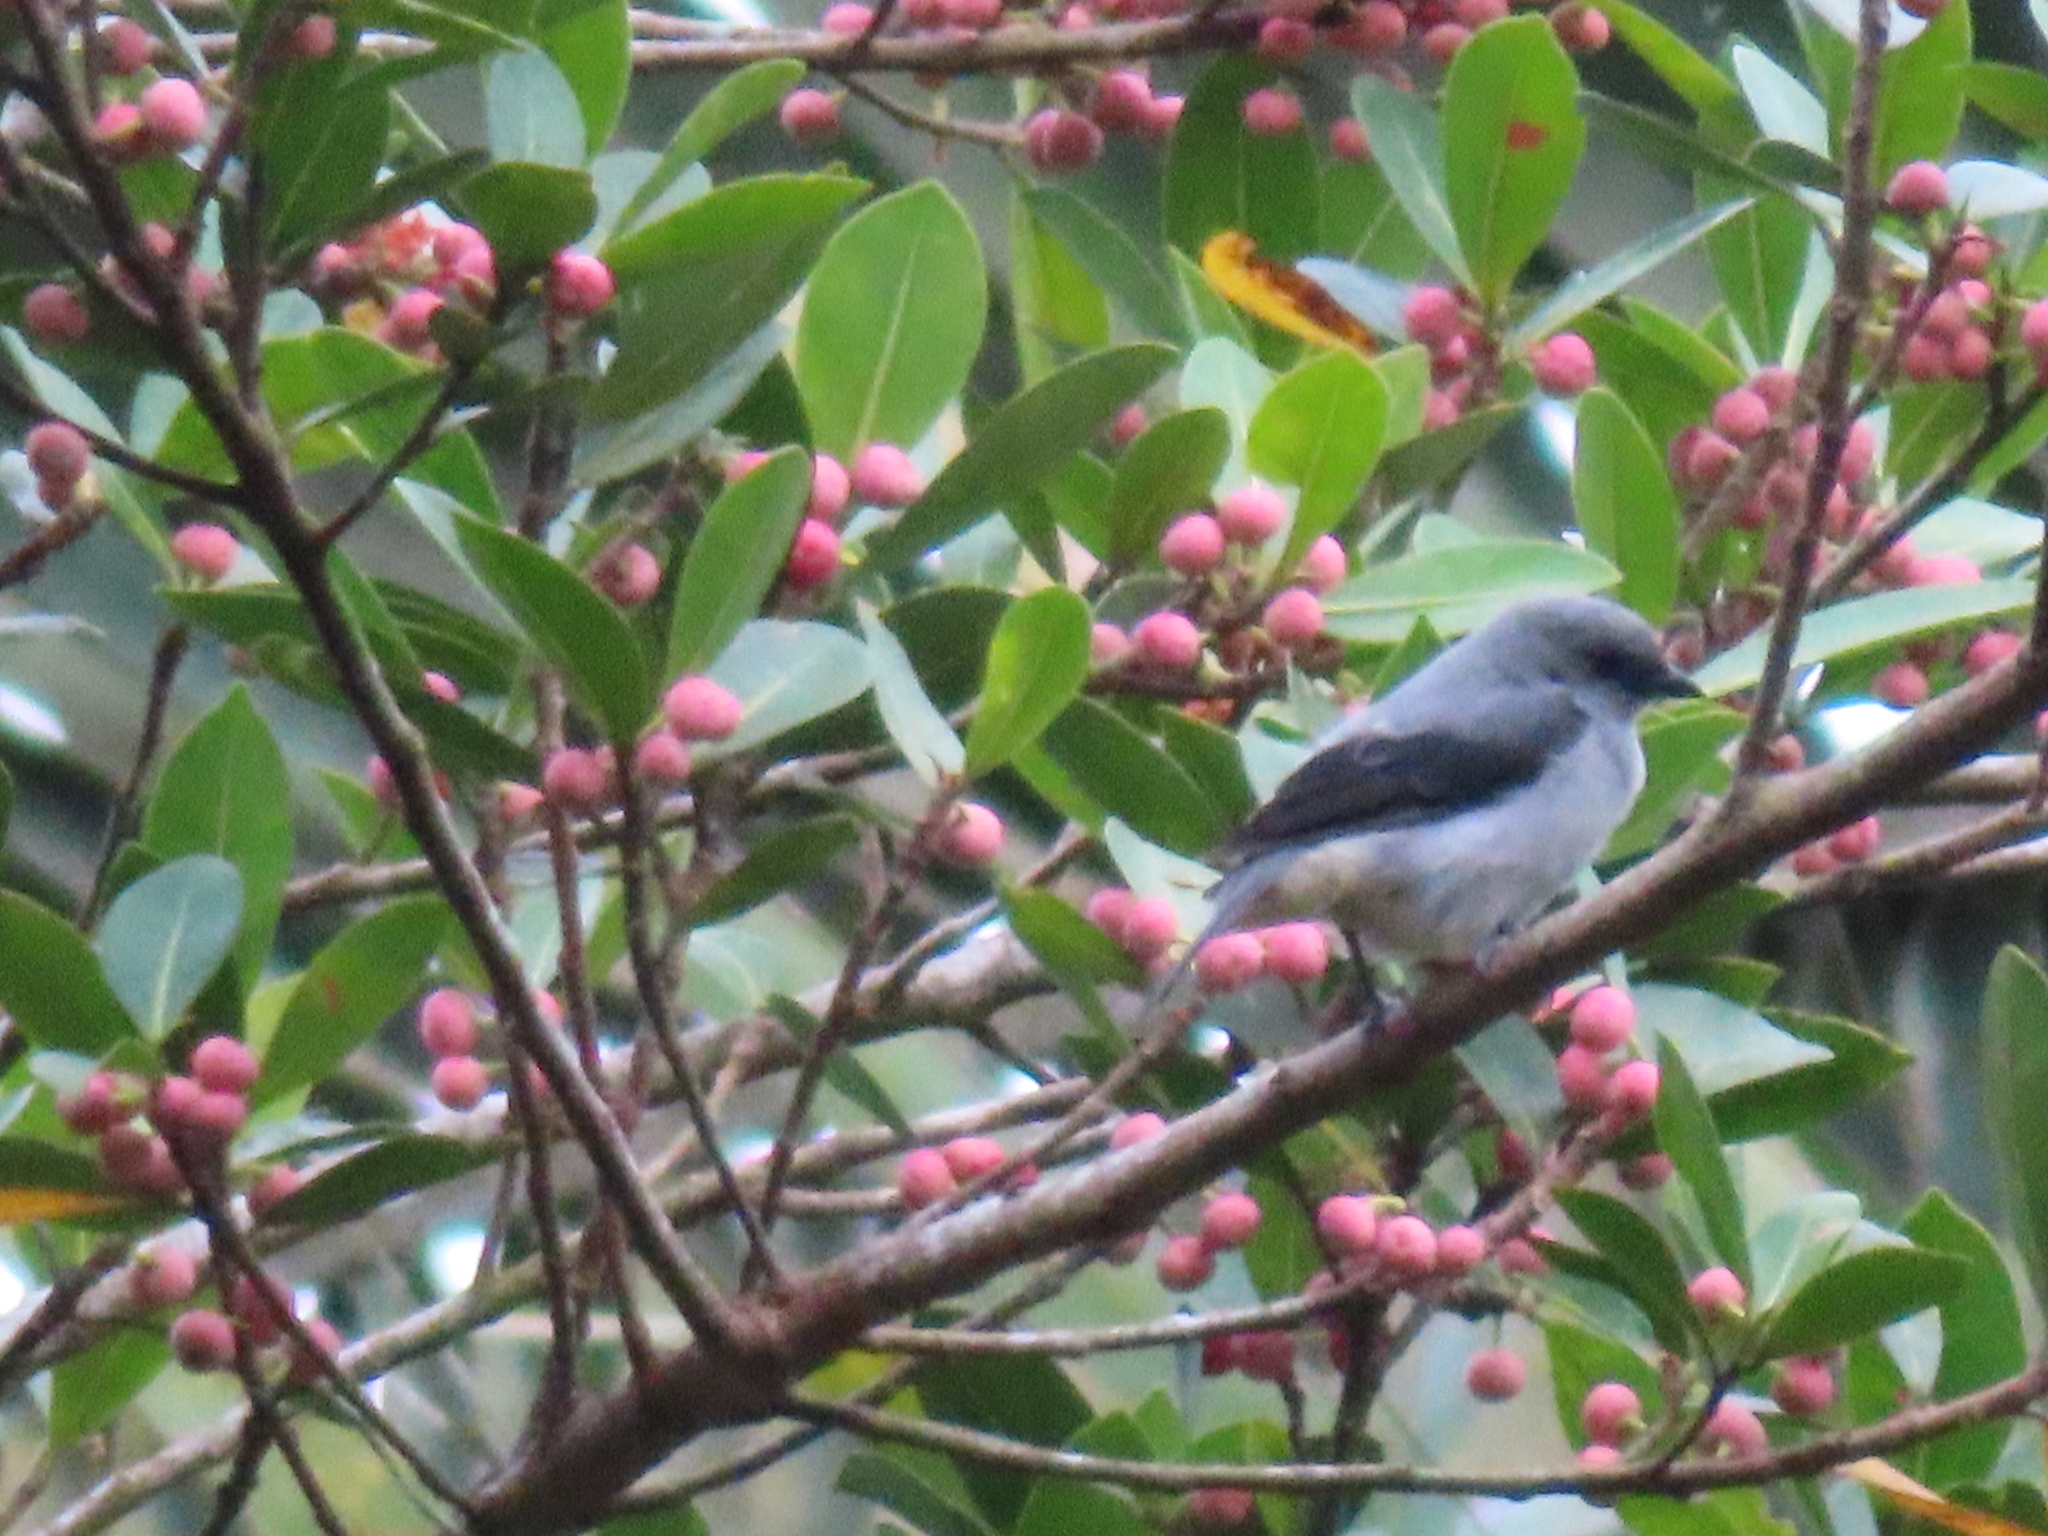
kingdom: Animalia
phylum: Chordata
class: Aves
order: Passeriformes
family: Thraupidae
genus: Tangara
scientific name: Tangara inornata
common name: Plain-colored tanager
